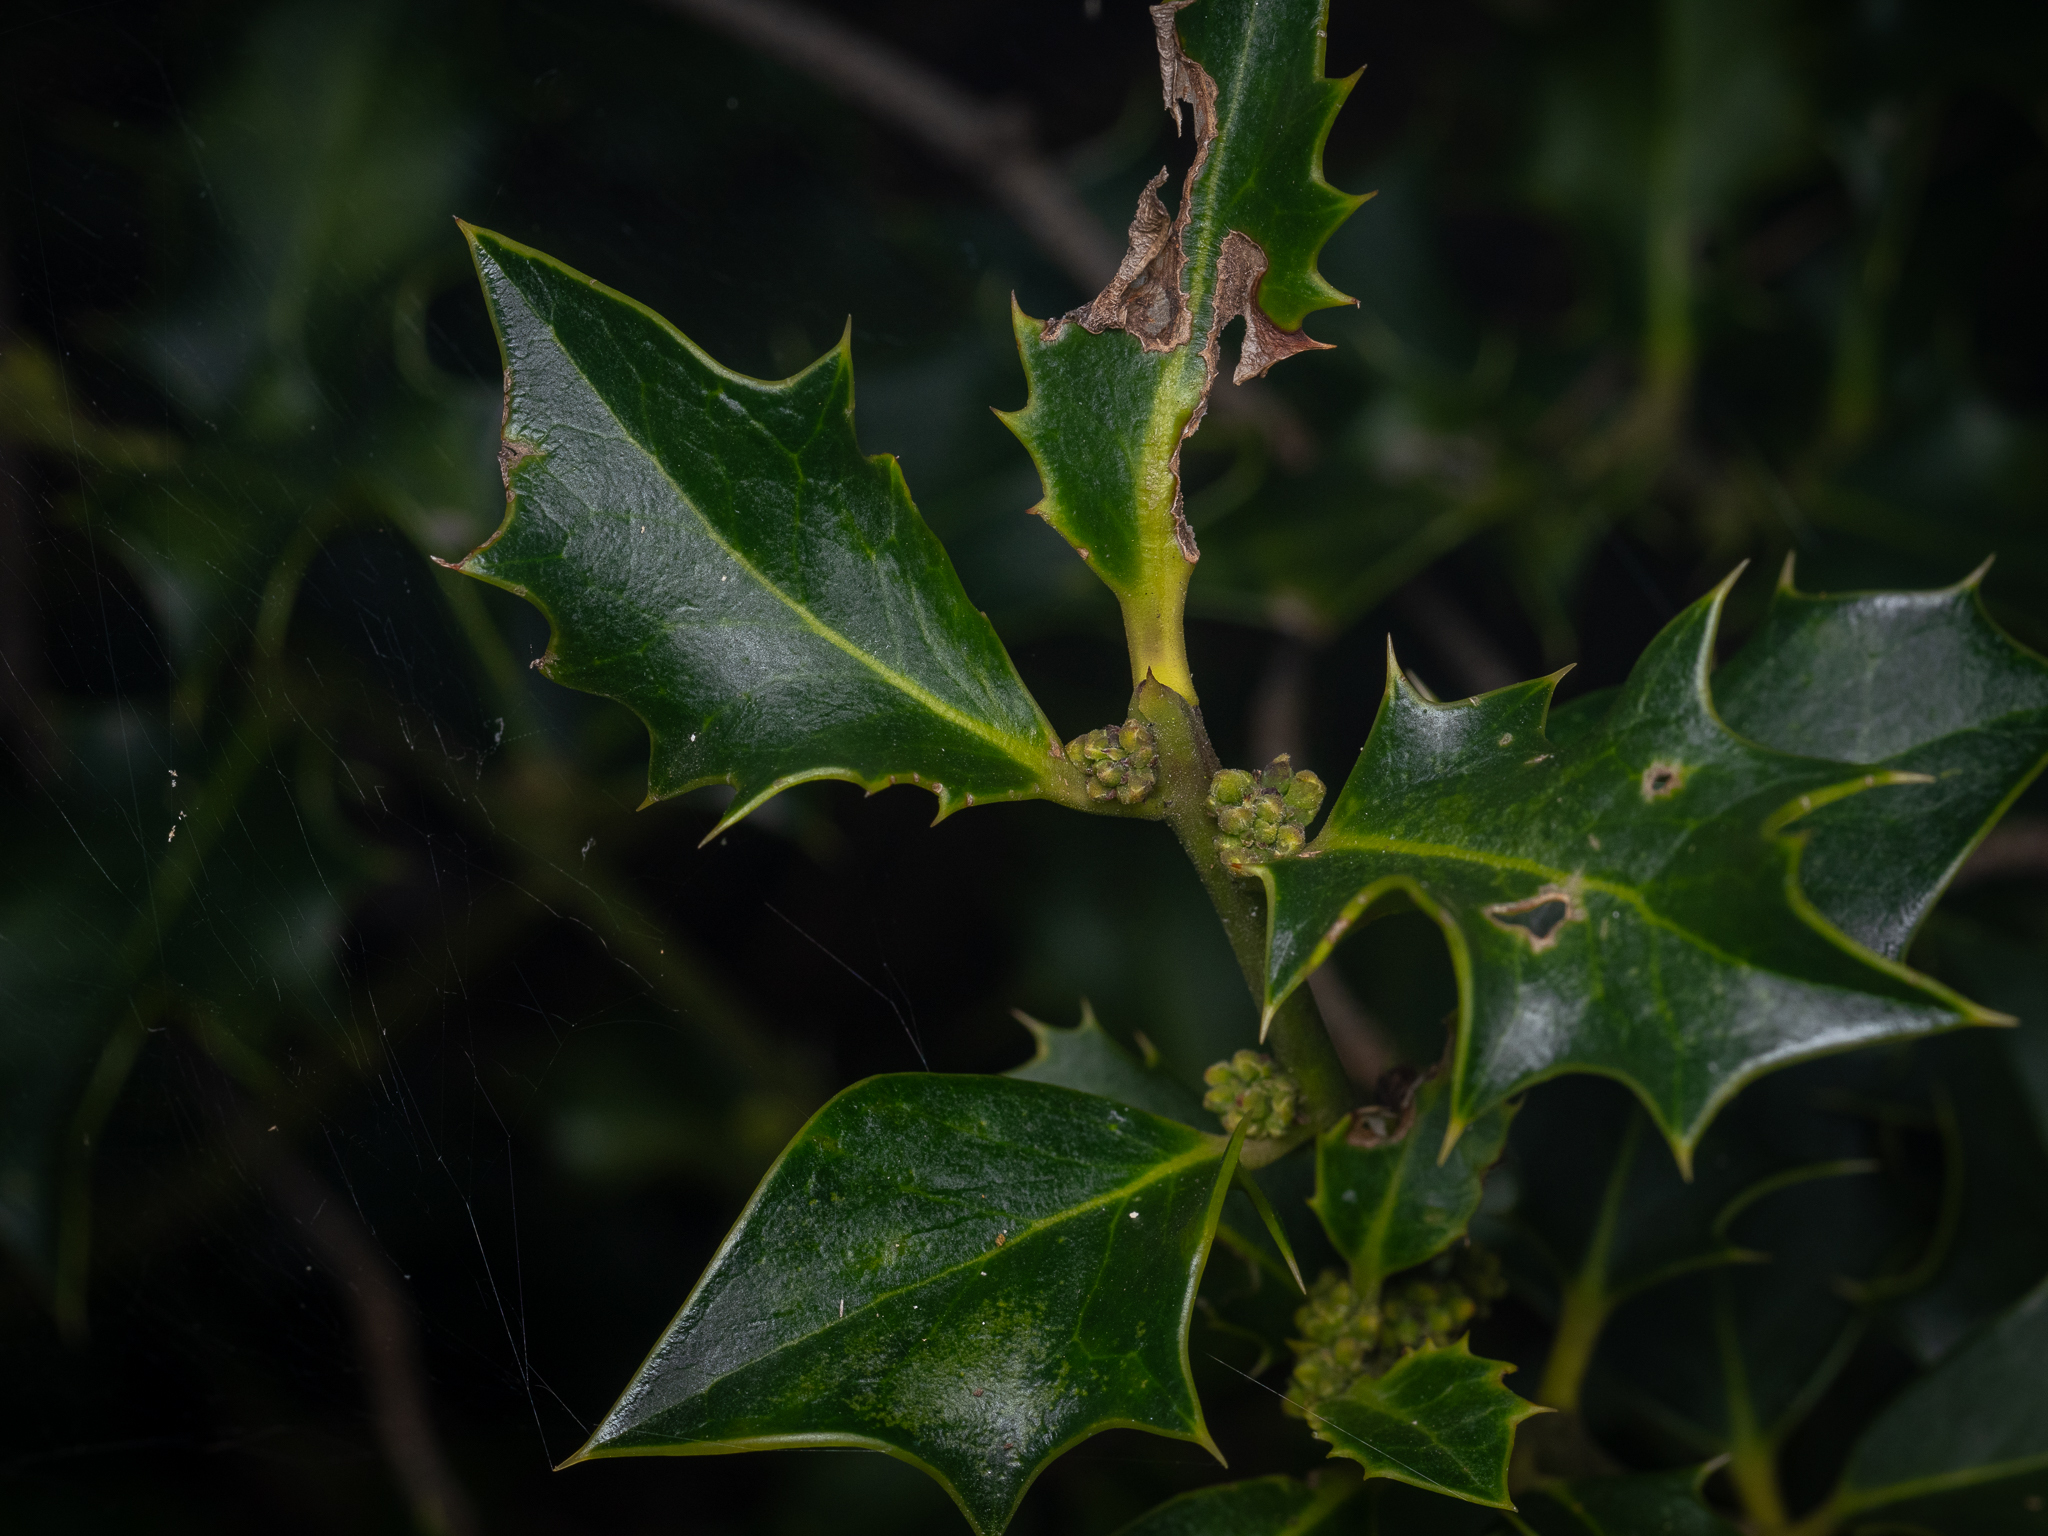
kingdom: Plantae
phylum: Tracheophyta
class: Magnoliopsida
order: Aquifoliales
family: Aquifoliaceae
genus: Ilex
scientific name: Ilex aquifolium
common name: English holly
